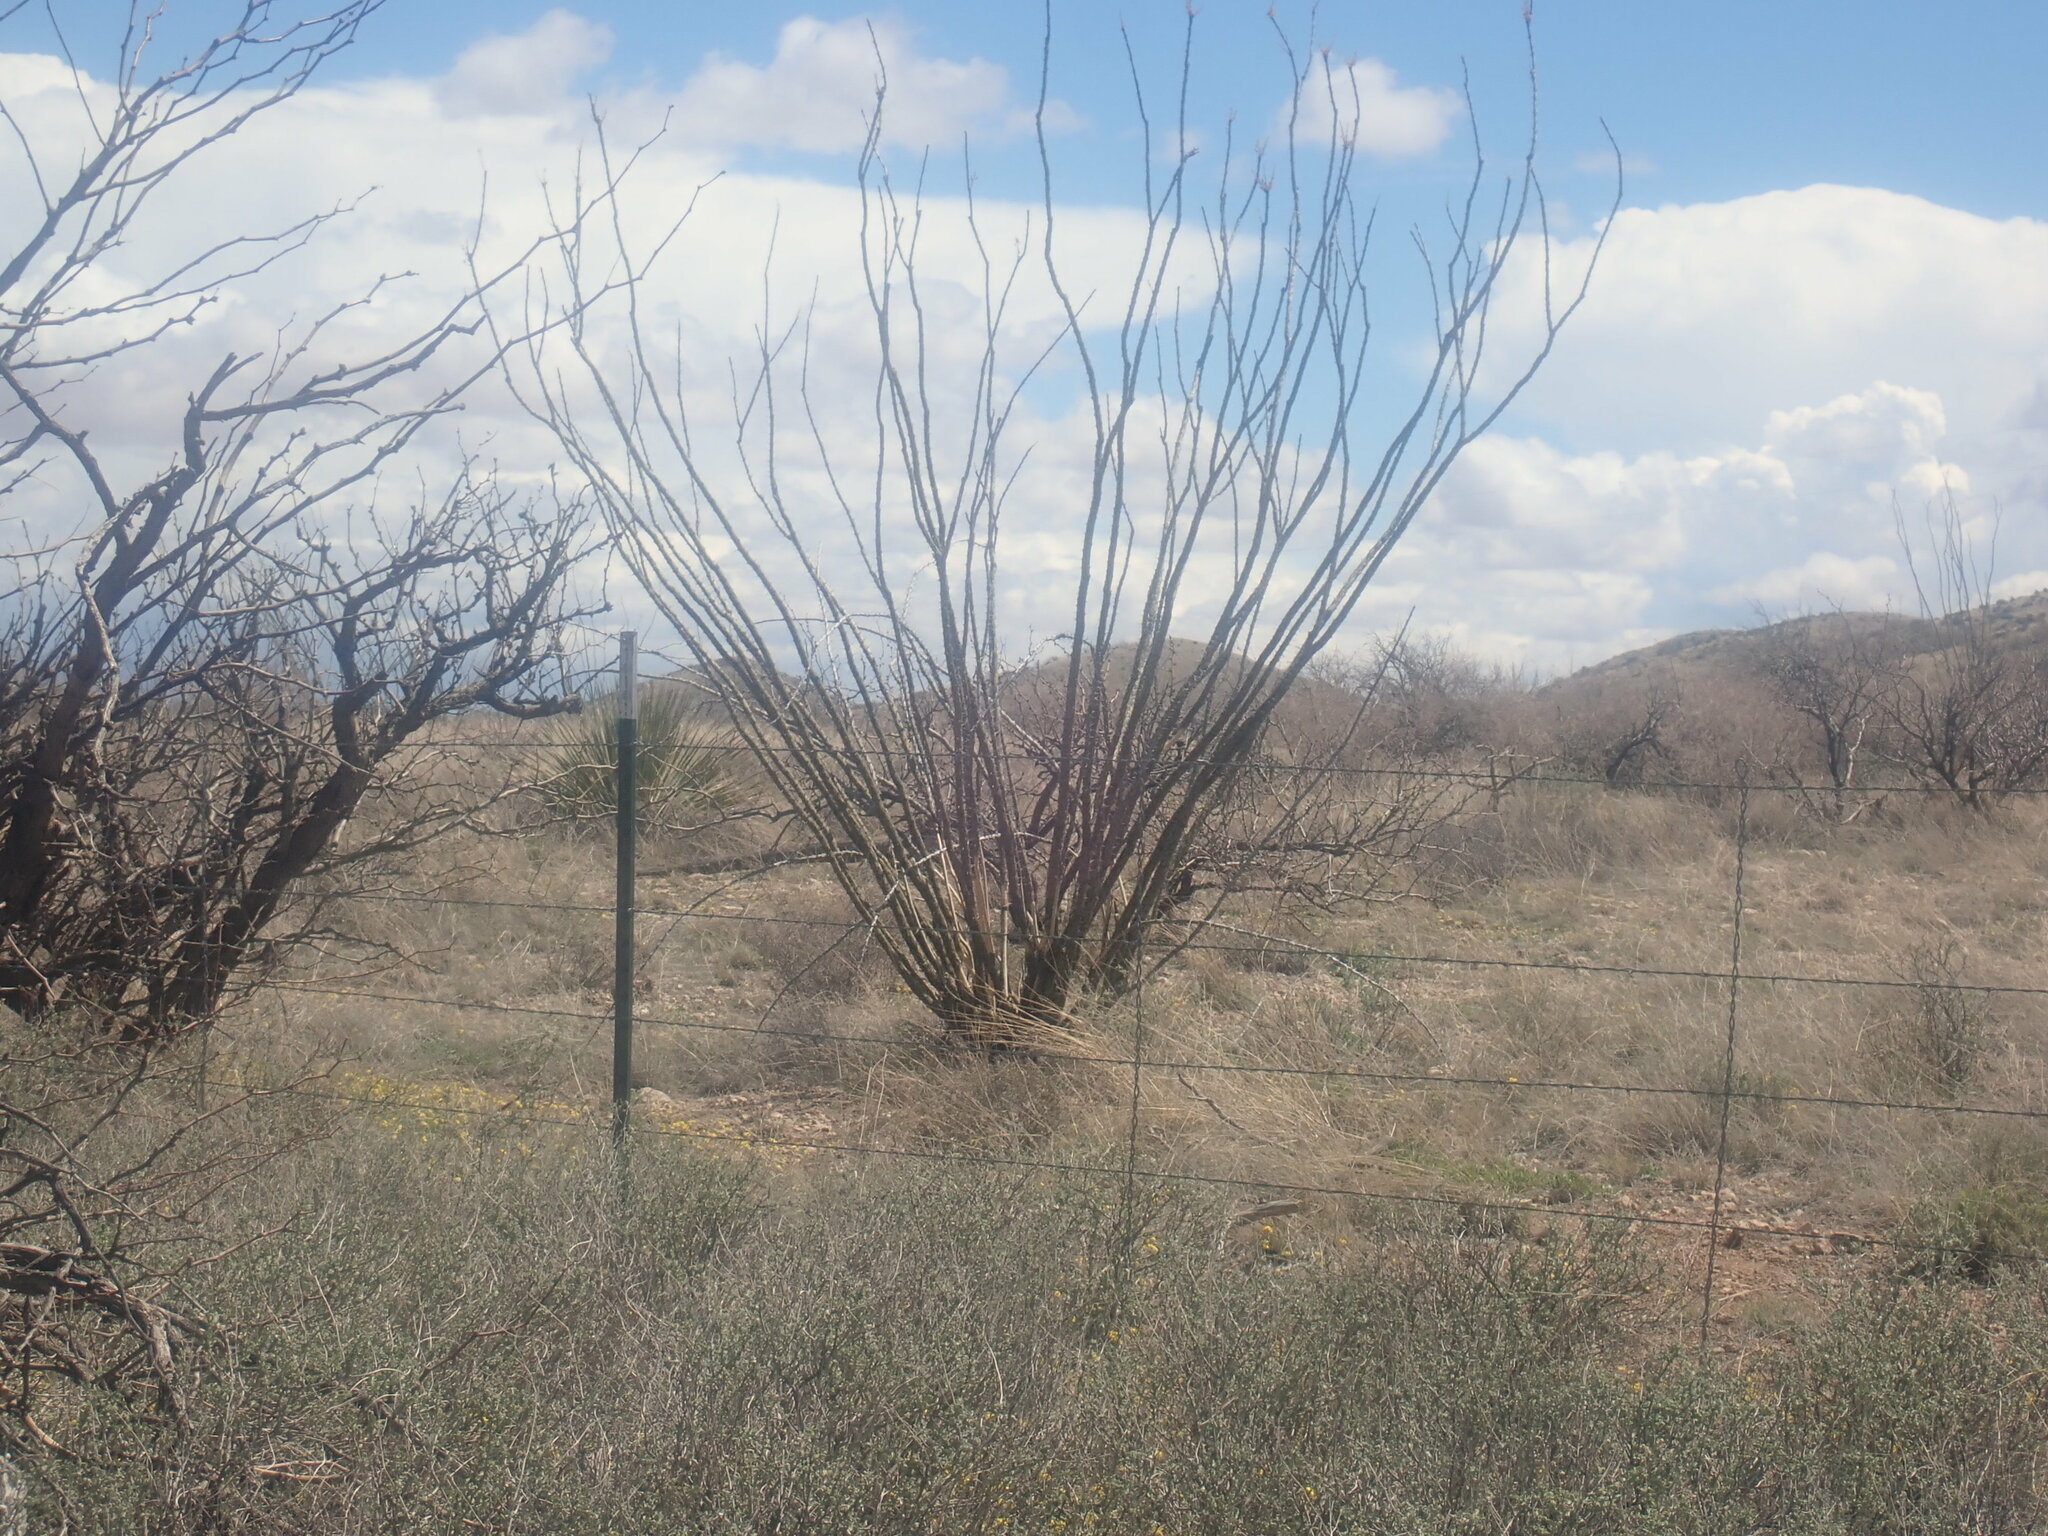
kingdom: Plantae
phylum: Tracheophyta
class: Magnoliopsida
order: Ericales
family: Fouquieriaceae
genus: Fouquieria
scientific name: Fouquieria splendens
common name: Vine-cactus
